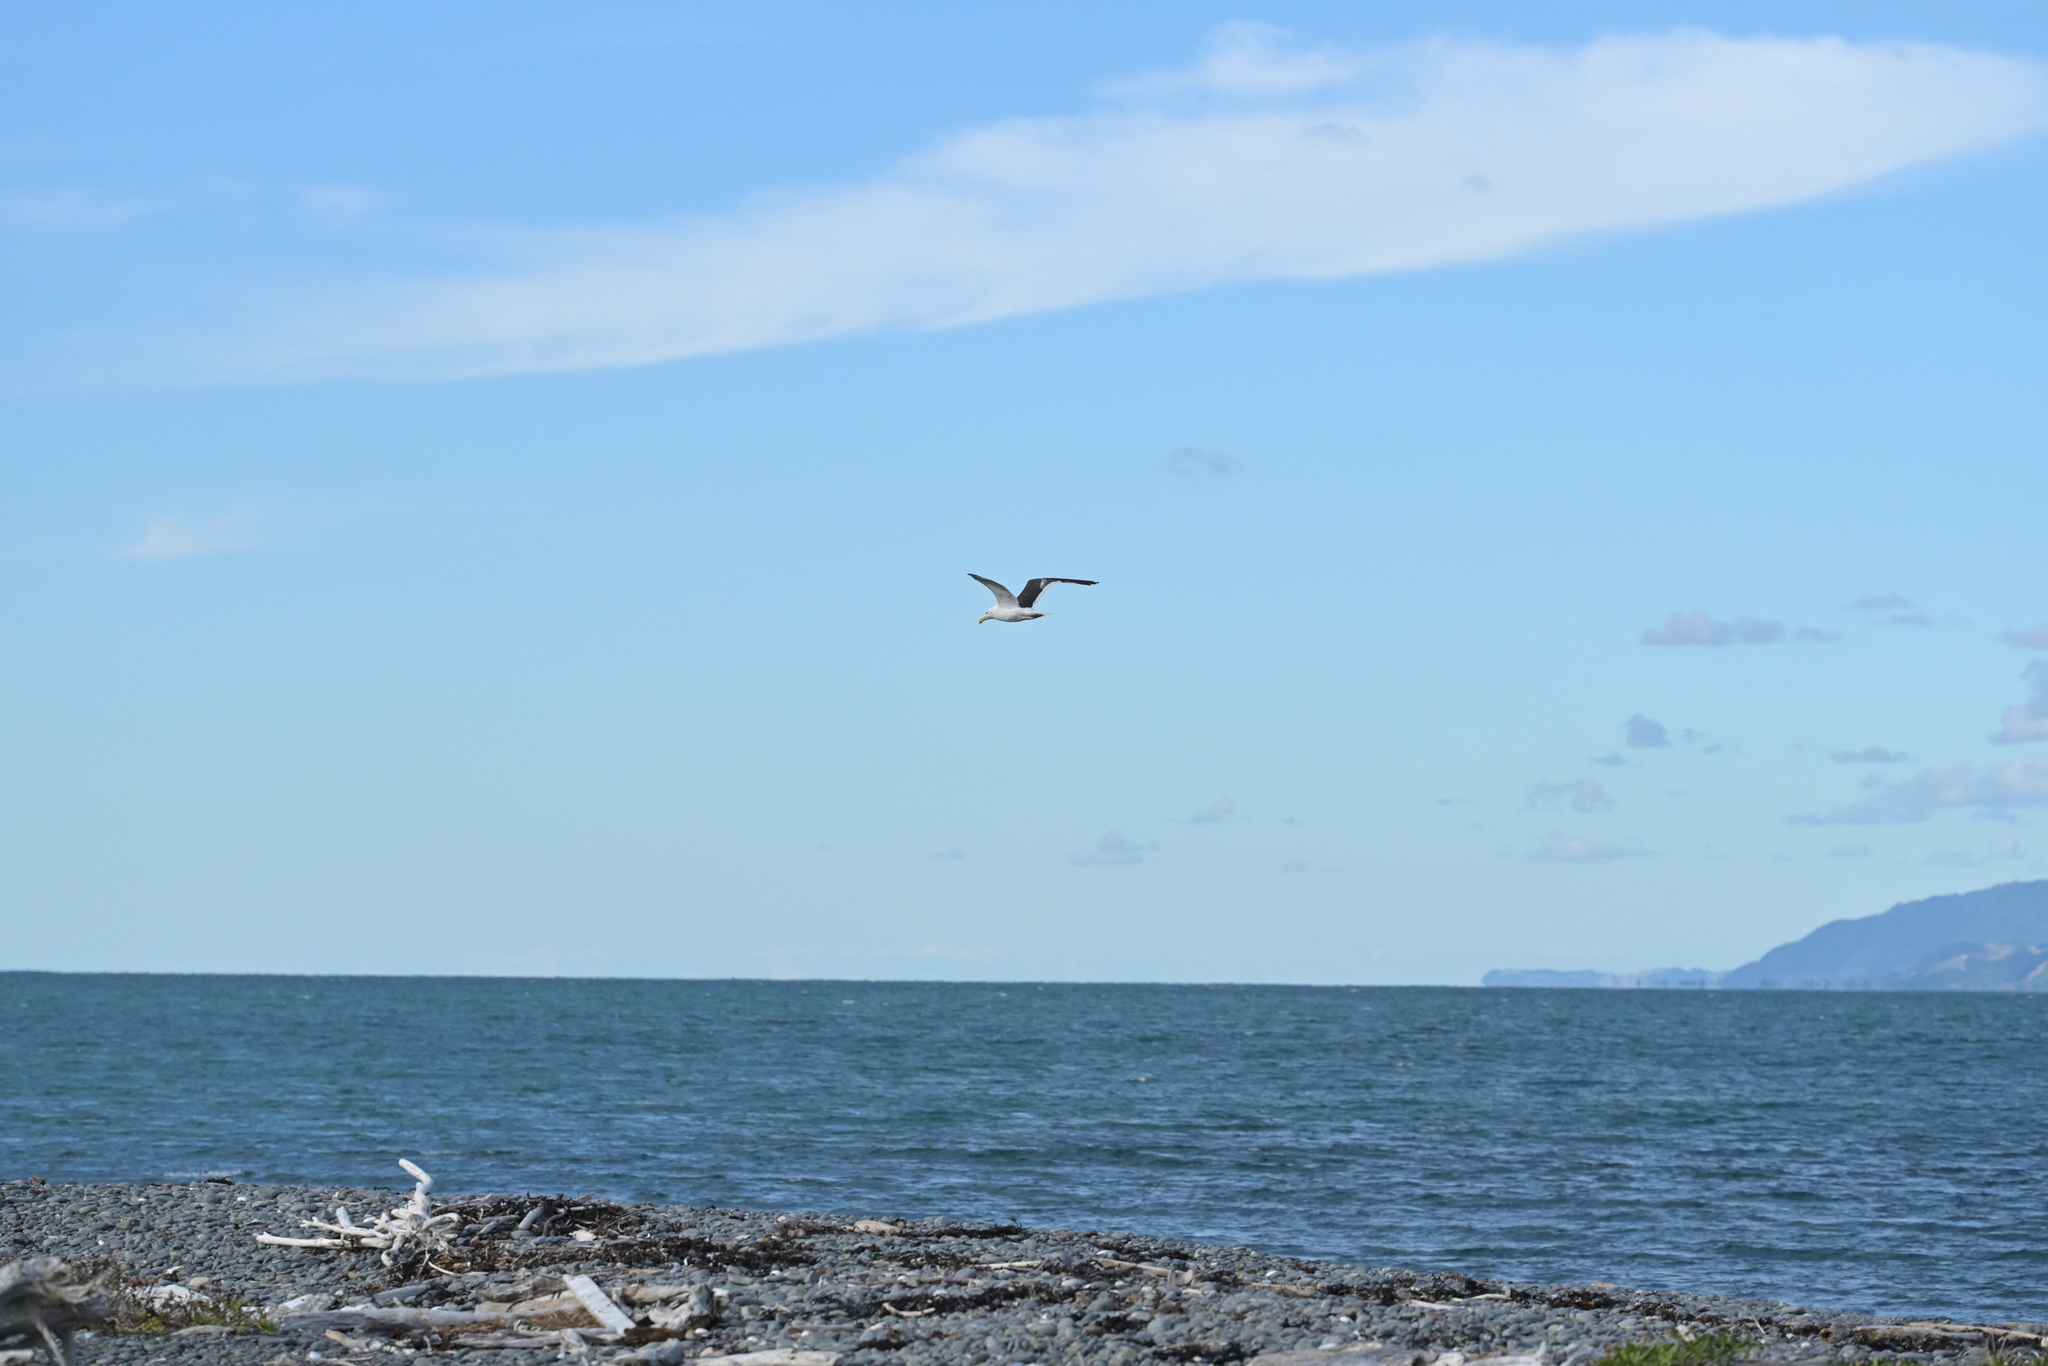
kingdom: Animalia
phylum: Chordata
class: Aves
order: Charadriiformes
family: Laridae
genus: Larus
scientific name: Larus dominicanus
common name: Kelp gull
